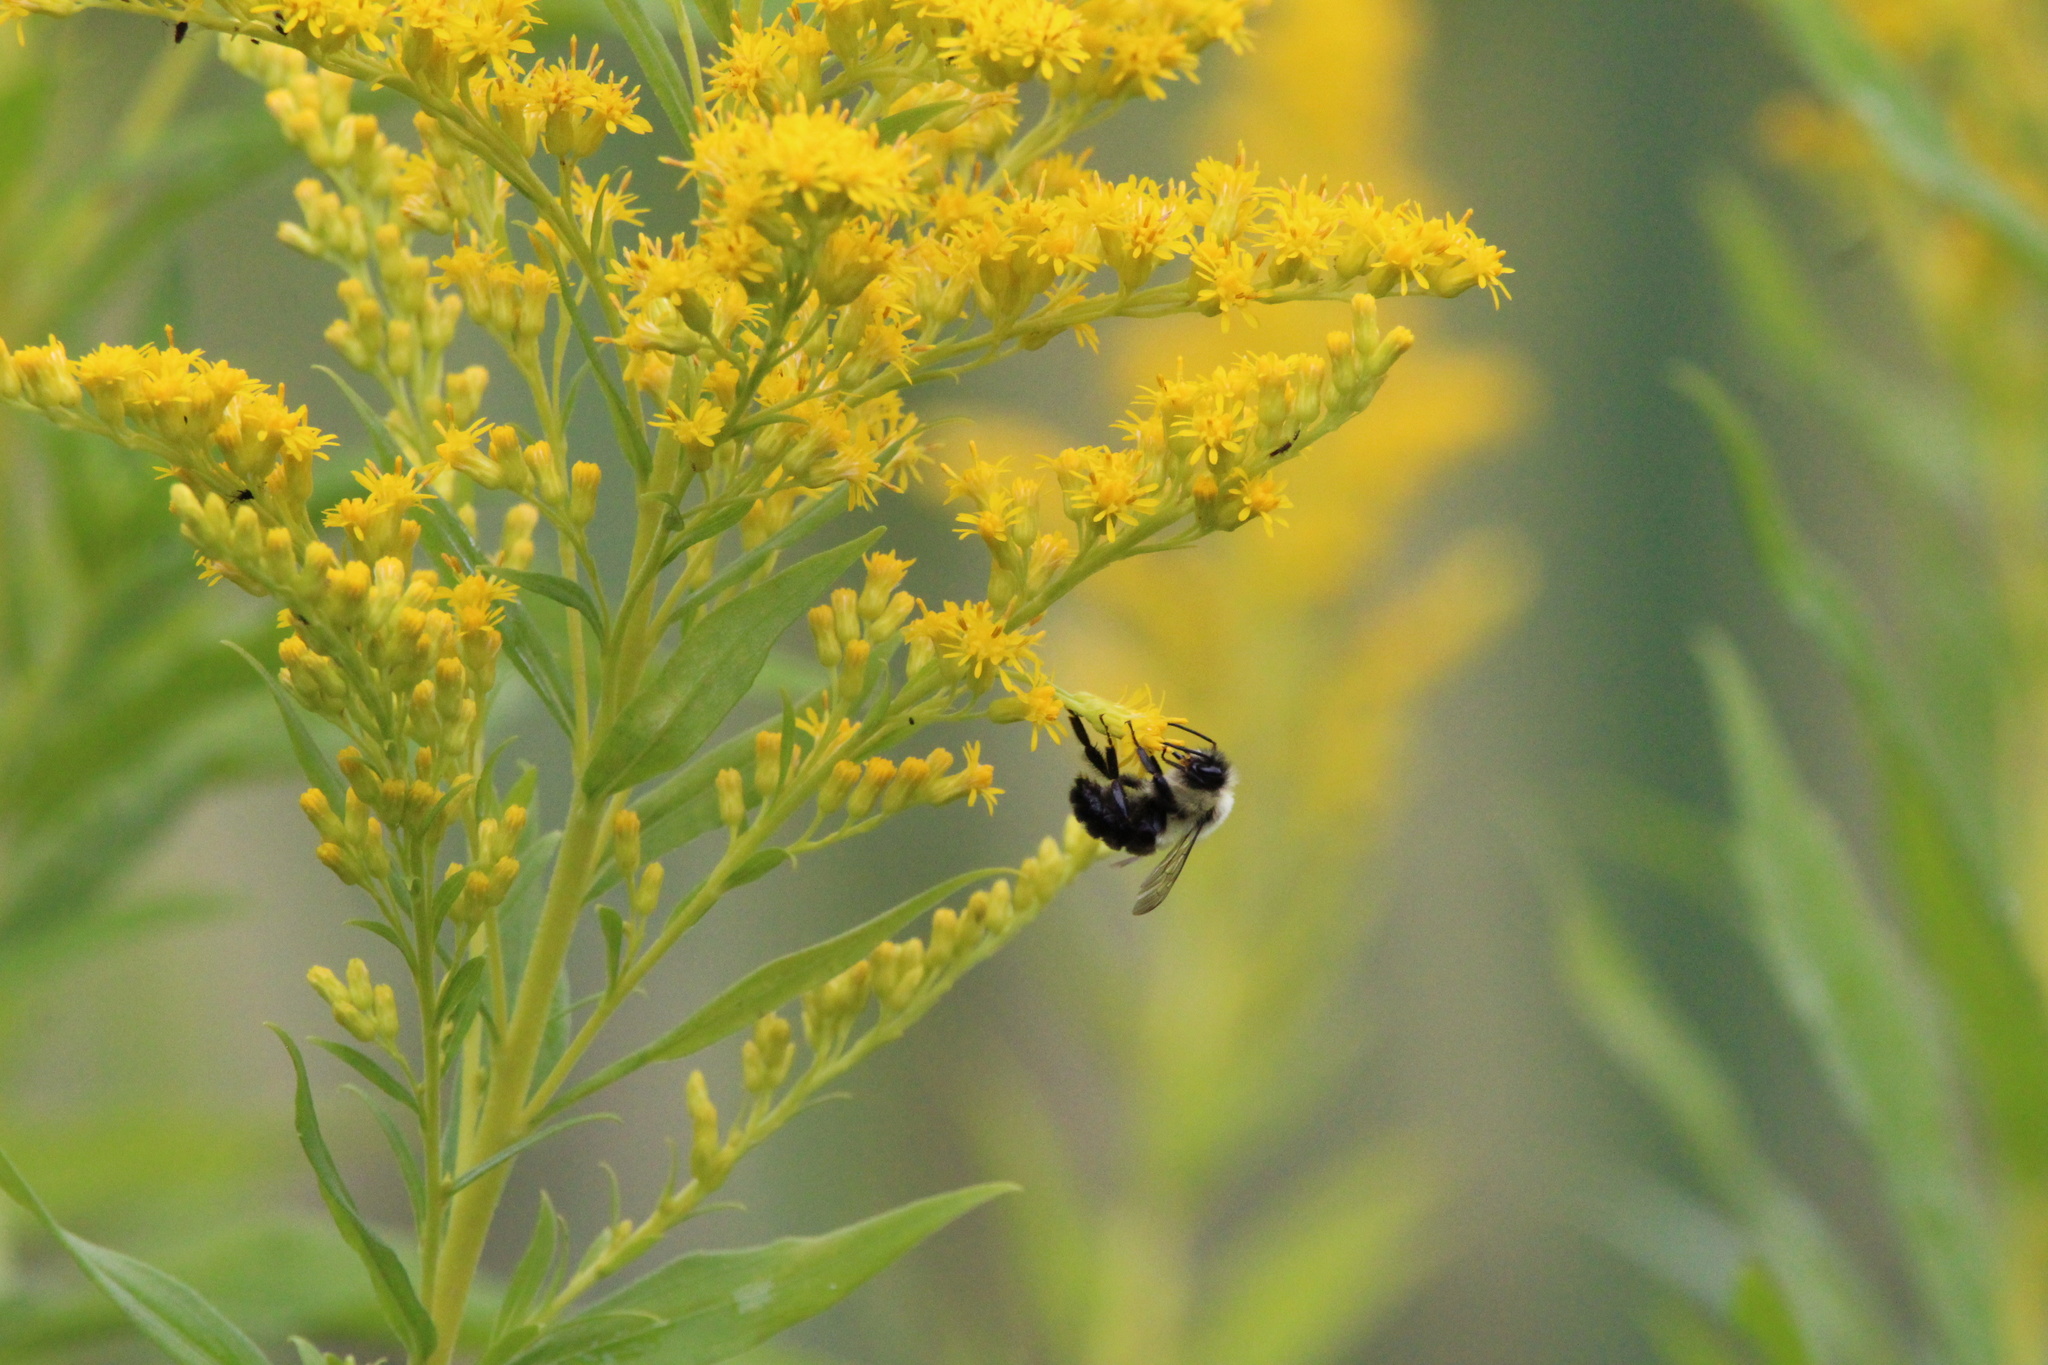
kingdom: Animalia
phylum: Arthropoda
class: Insecta
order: Hymenoptera
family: Apidae
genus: Bombus
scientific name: Bombus impatiens
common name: Common eastern bumble bee
